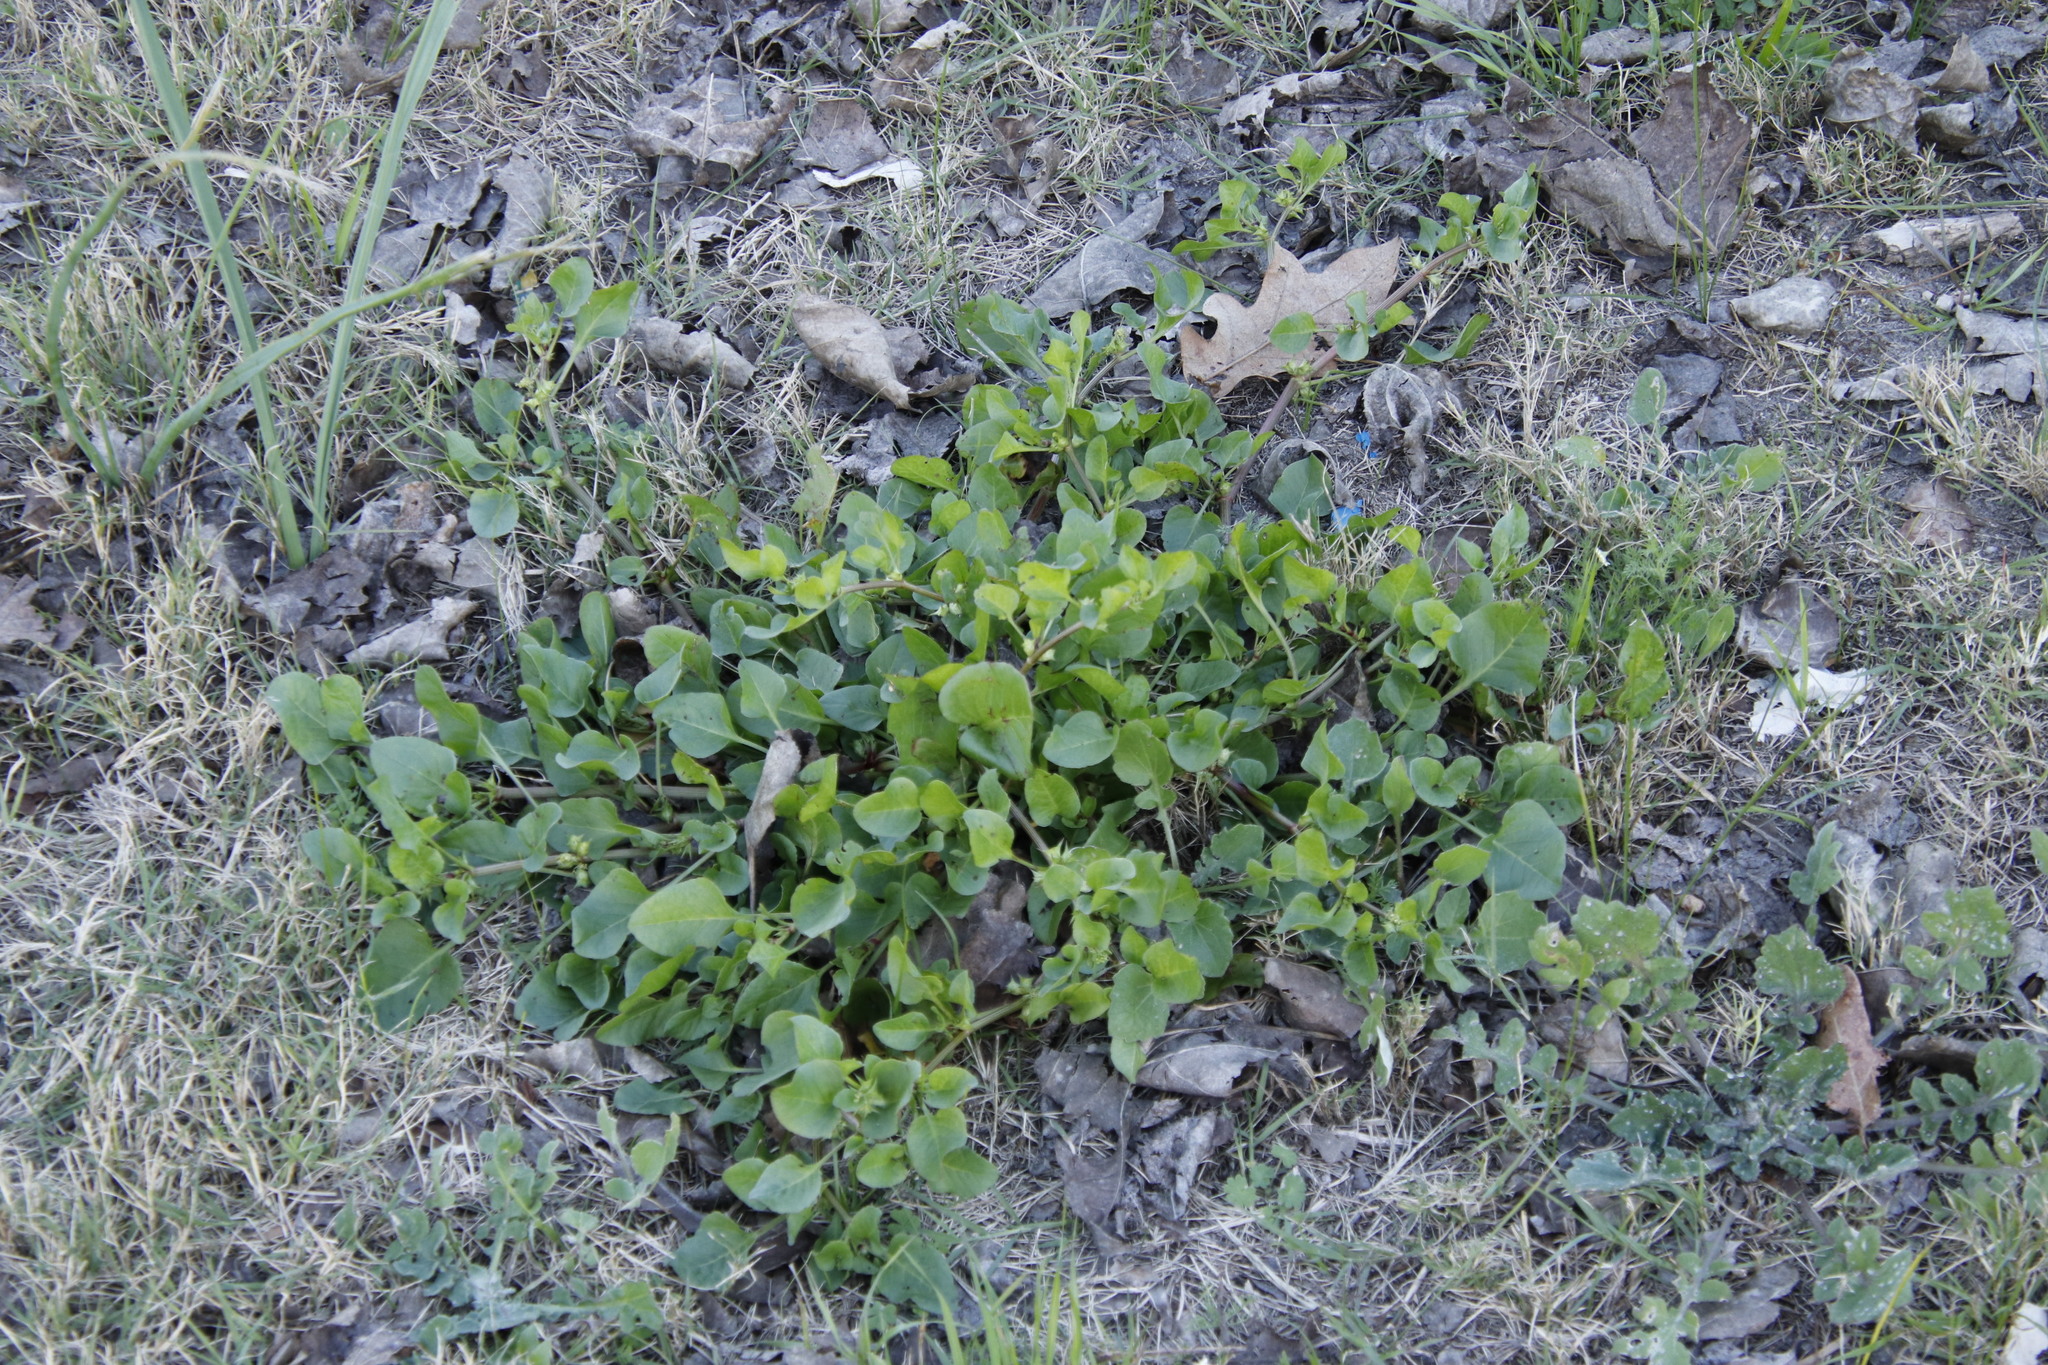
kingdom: Plantae
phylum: Tracheophyta
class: Magnoliopsida
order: Caryophyllales
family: Polygonaceae
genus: Rumex
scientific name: Rumex hypogaeus
